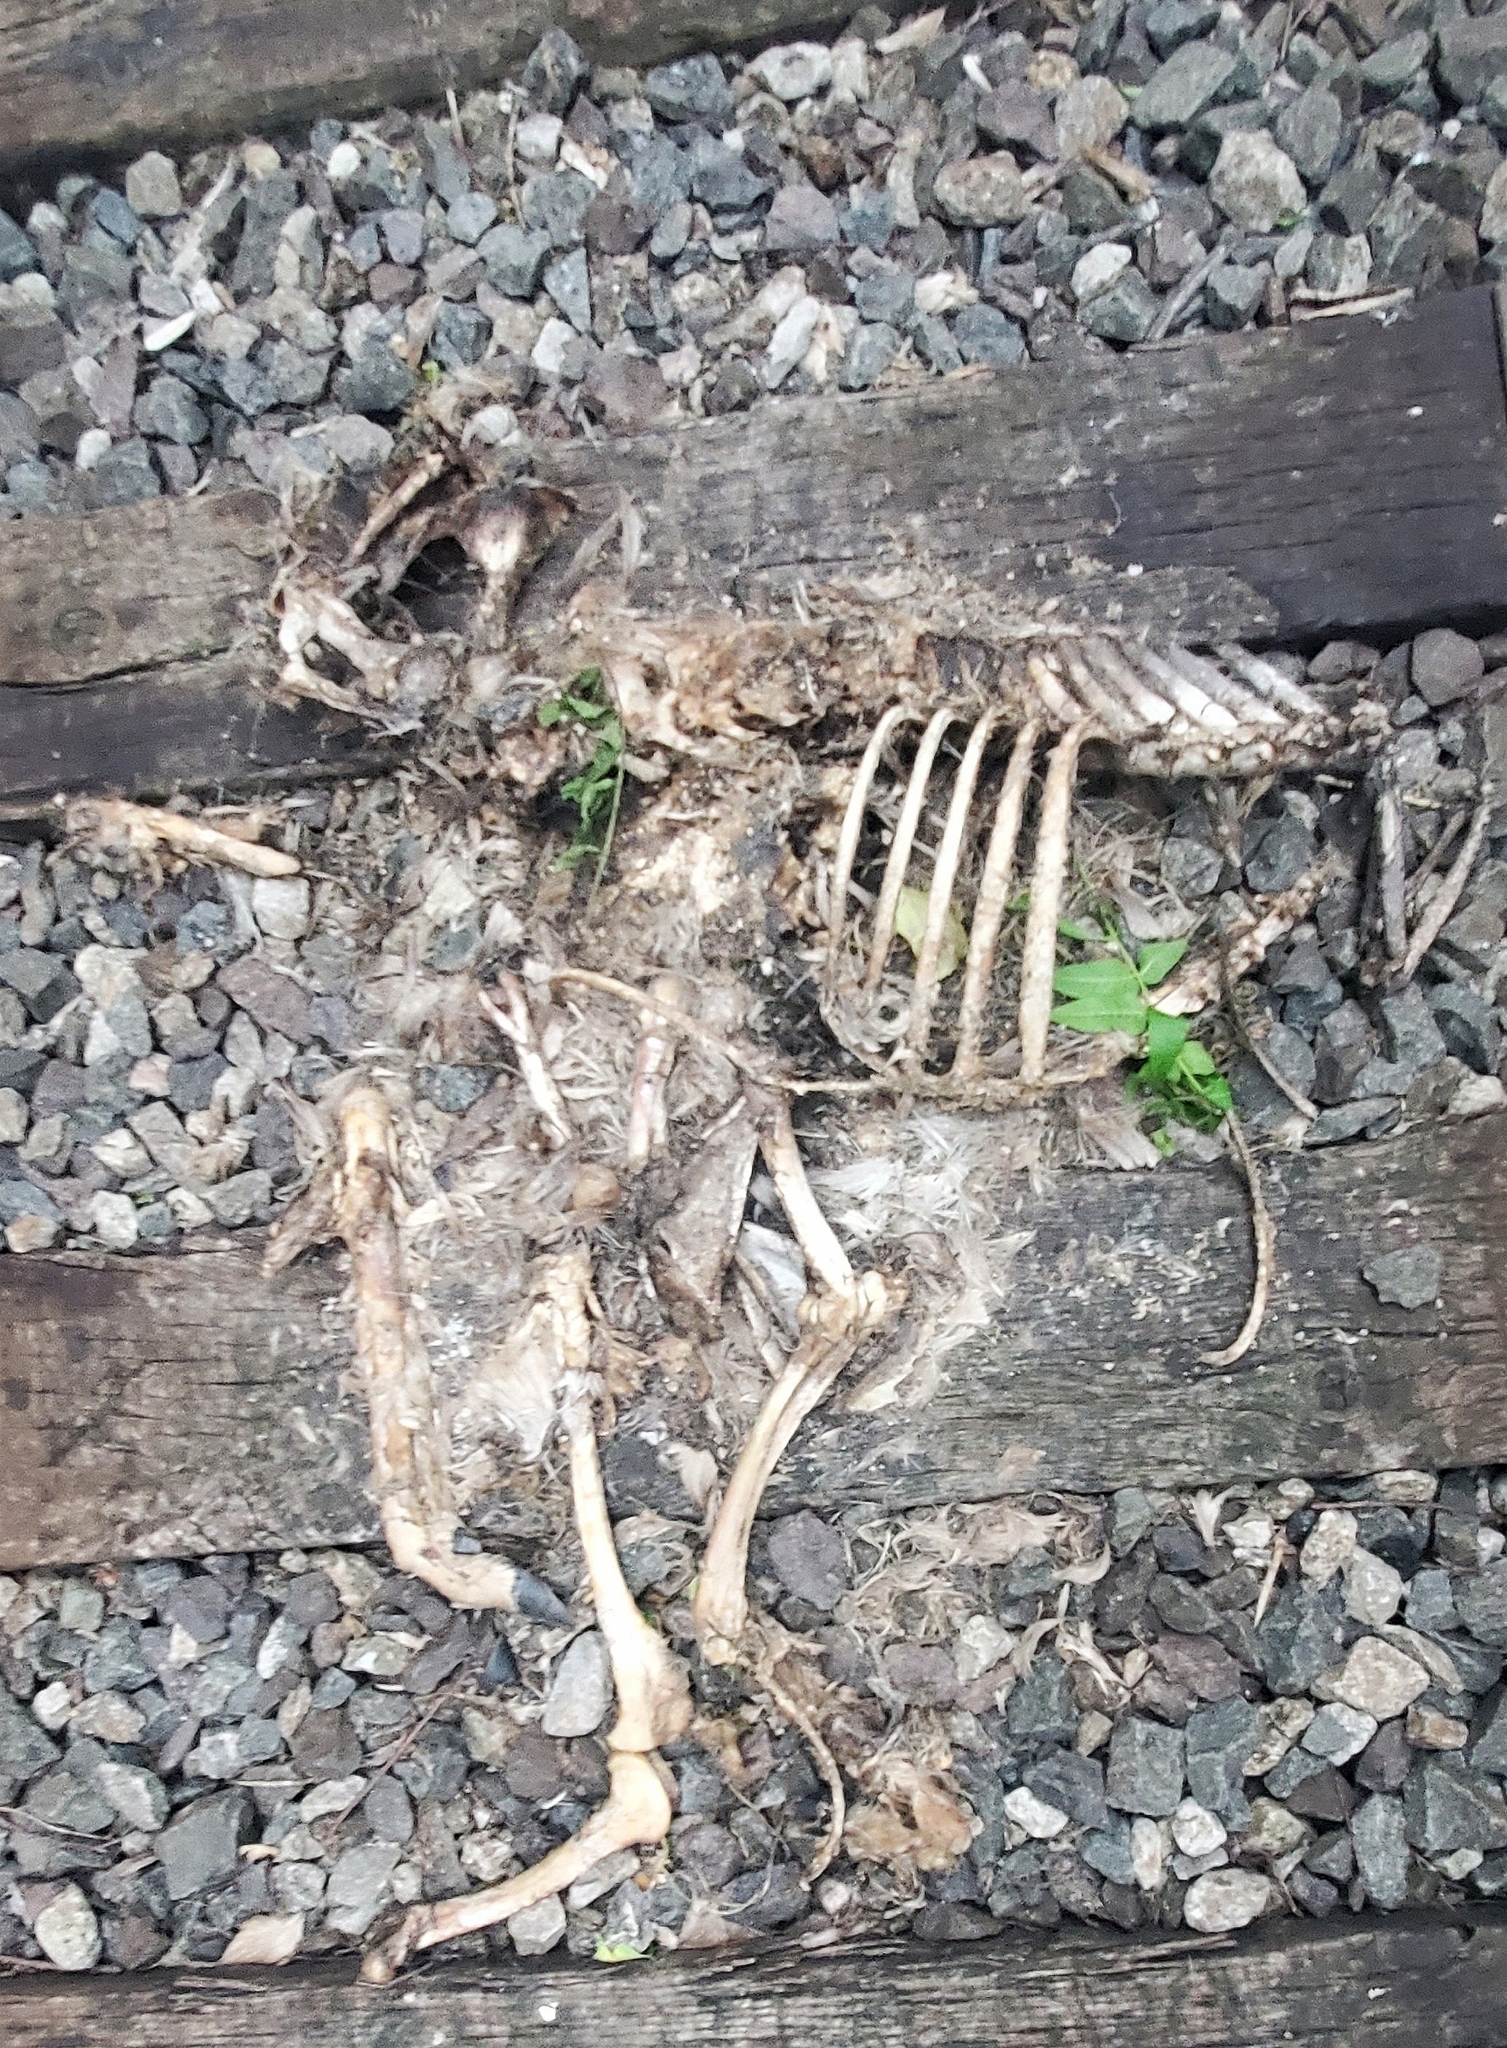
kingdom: Animalia
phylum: Chordata
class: Mammalia
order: Artiodactyla
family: Cervidae
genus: Odocoileus
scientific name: Odocoileus virginianus
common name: White-tailed deer
